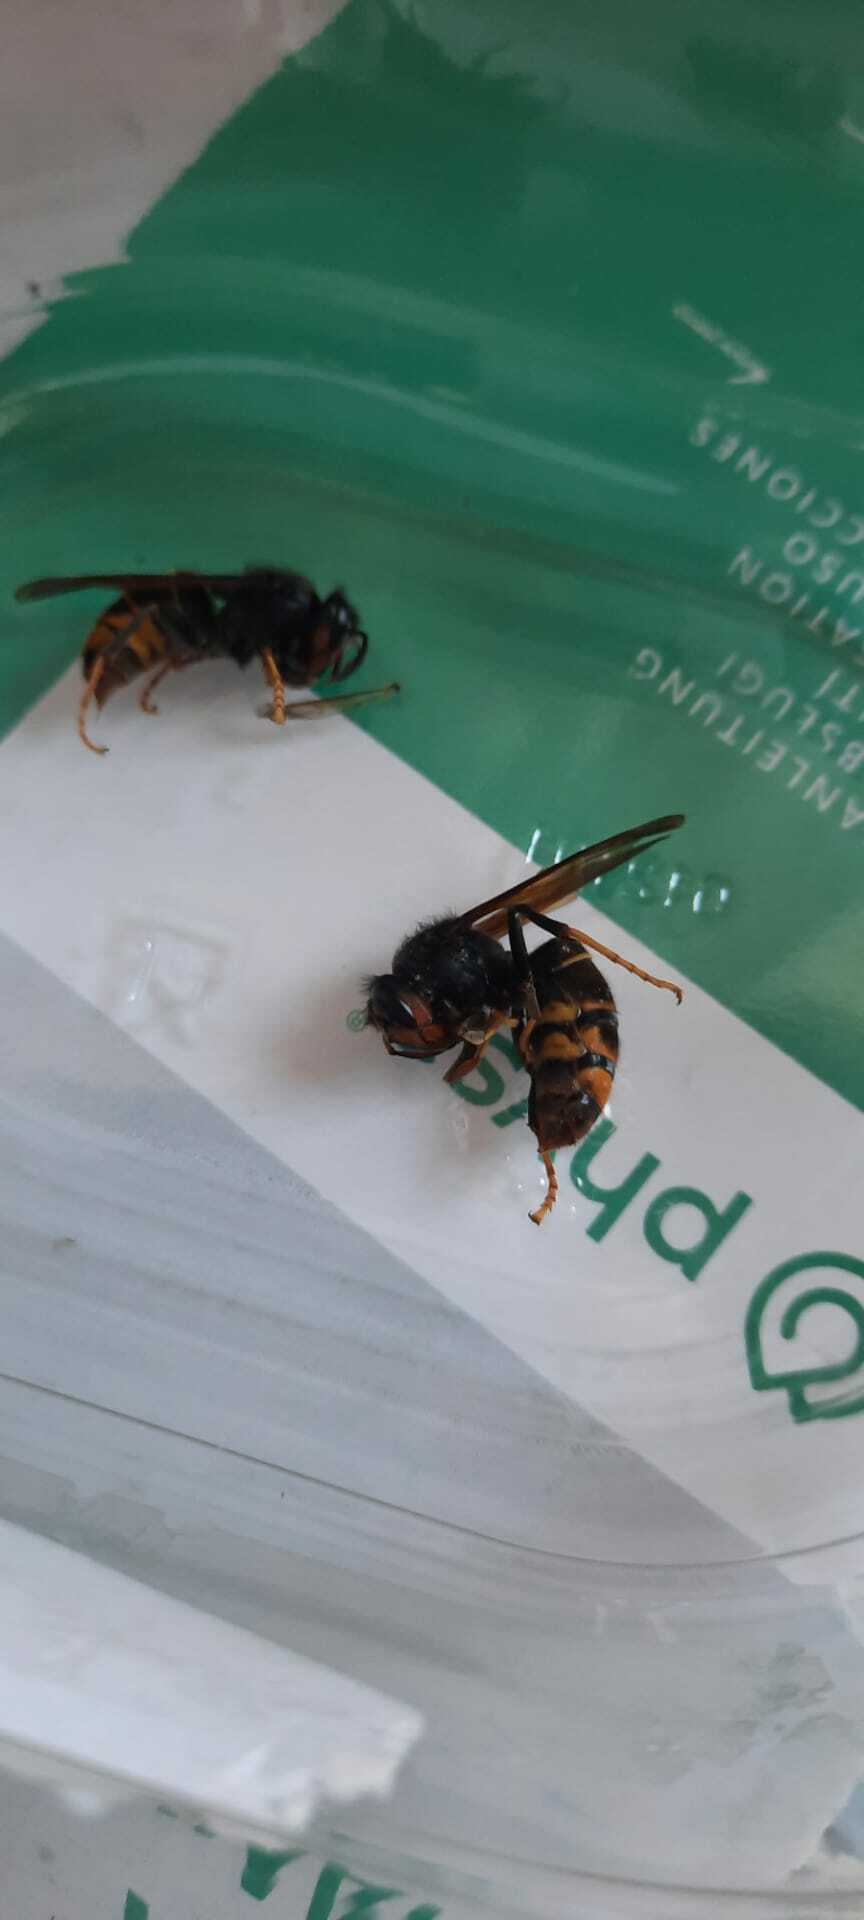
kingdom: Animalia
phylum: Arthropoda
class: Insecta
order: Hymenoptera
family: Vespidae
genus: Vespa
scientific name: Vespa velutina
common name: Asian hornet
